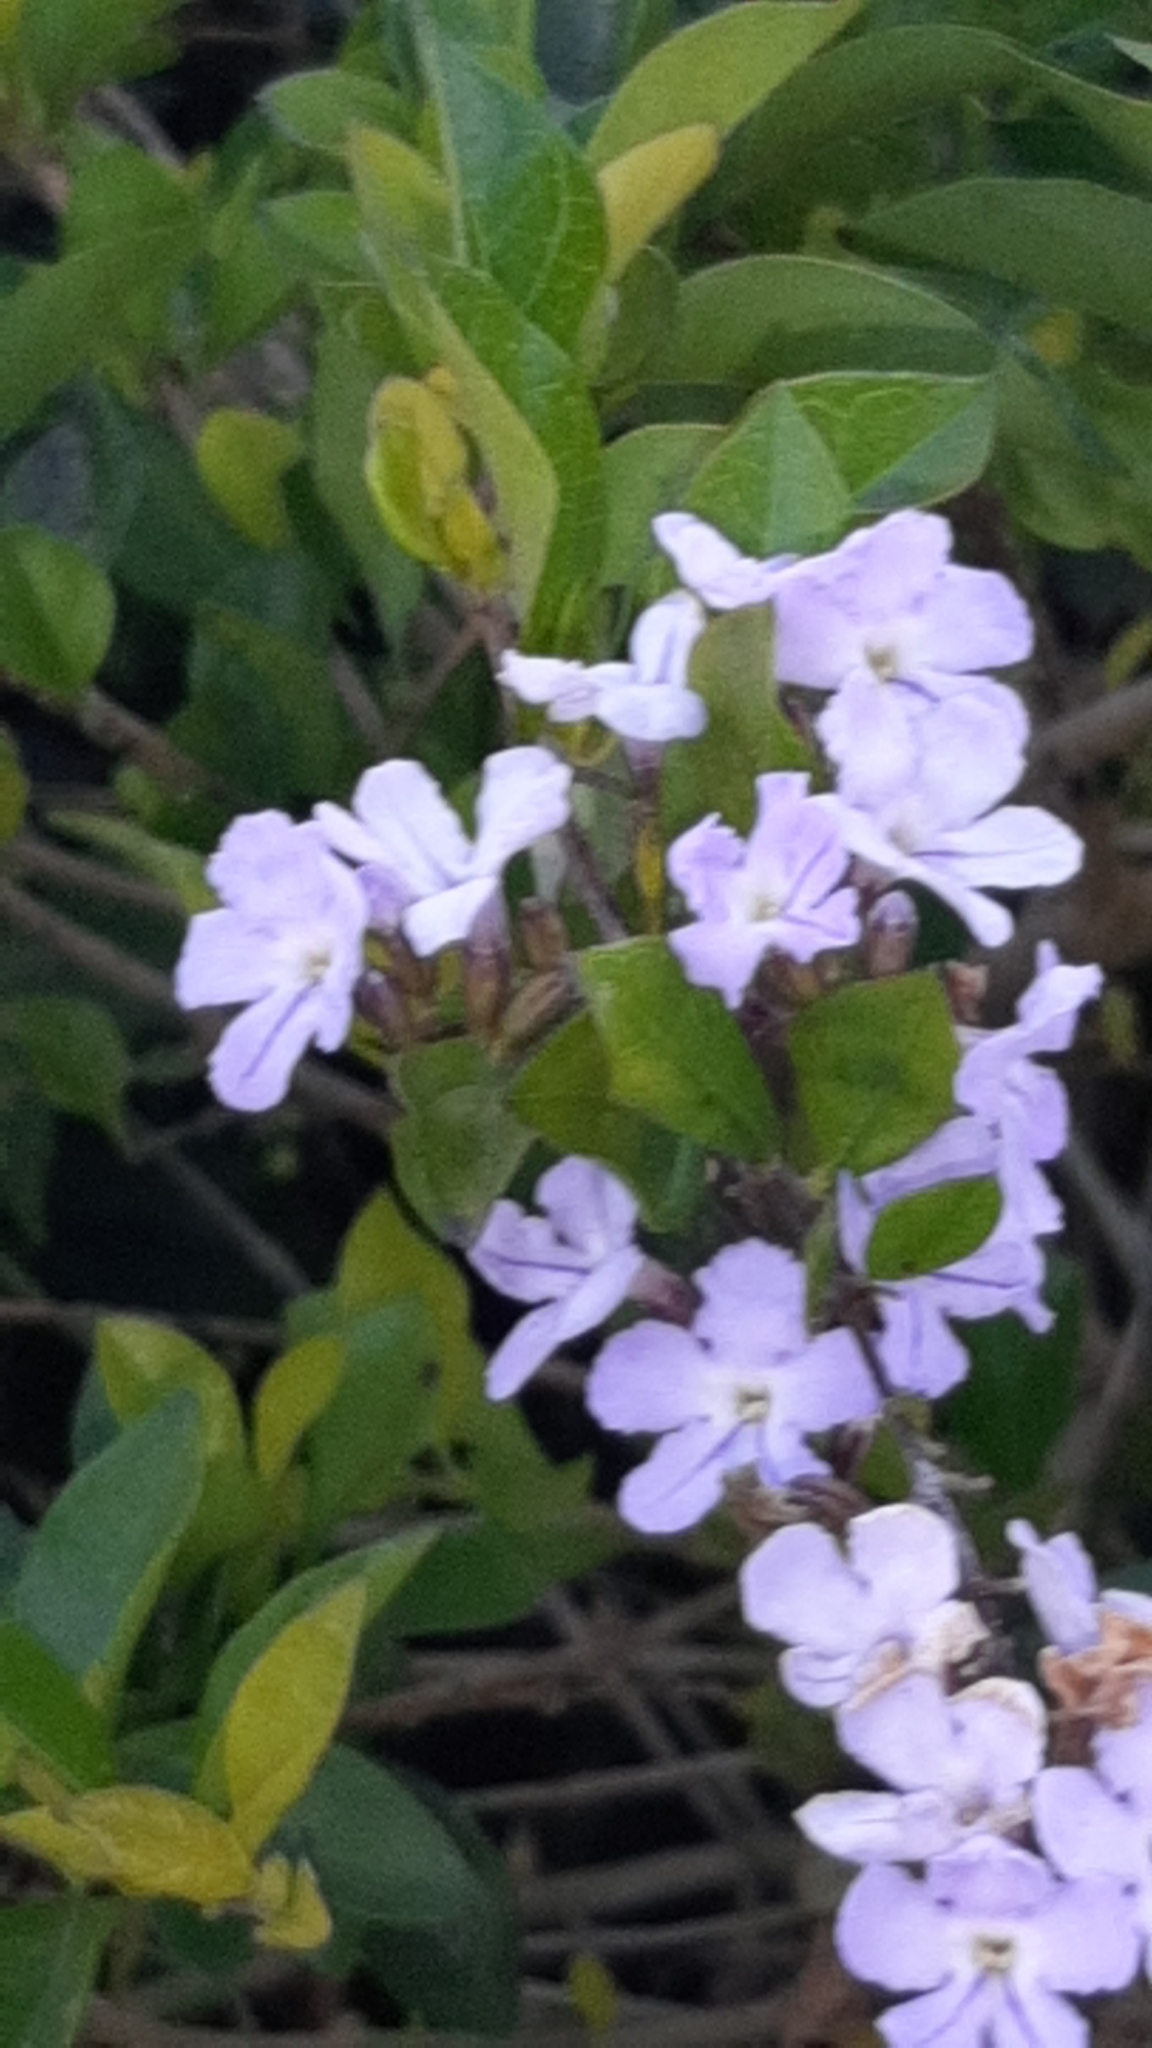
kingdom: Plantae
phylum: Tracheophyta
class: Magnoliopsida
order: Lamiales
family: Verbenaceae
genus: Duranta
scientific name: Duranta erecta
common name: Golden dewdrops
